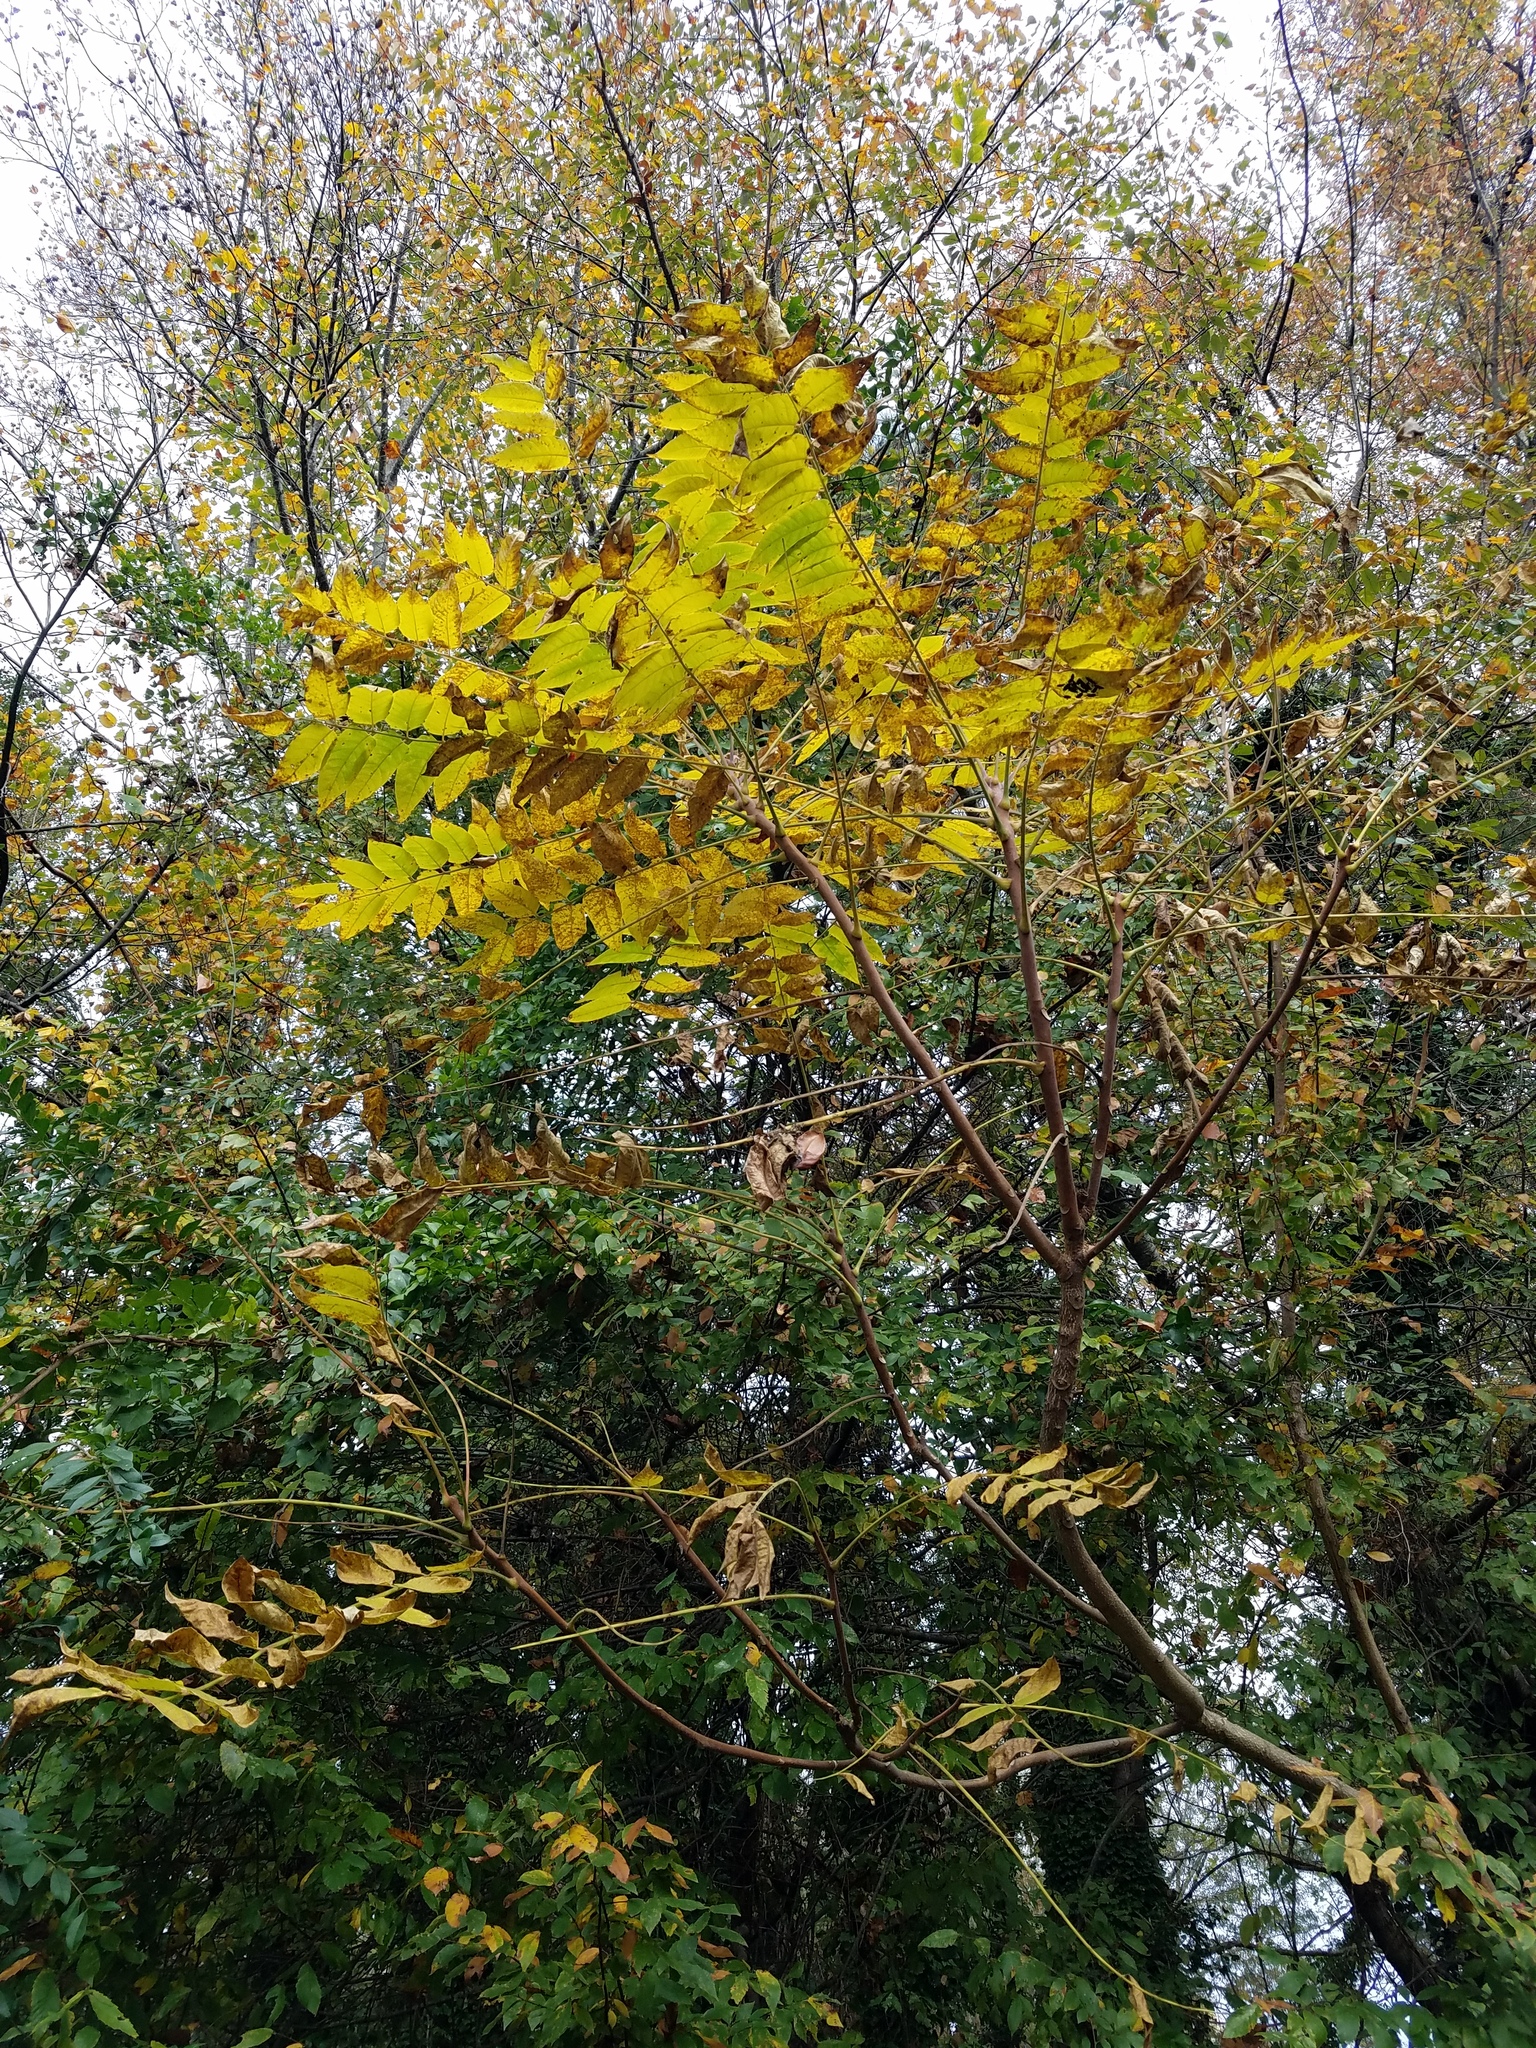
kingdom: Plantae
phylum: Tracheophyta
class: Magnoliopsida
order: Sapindales
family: Simaroubaceae
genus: Ailanthus
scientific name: Ailanthus altissima
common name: Tree-of-heaven
